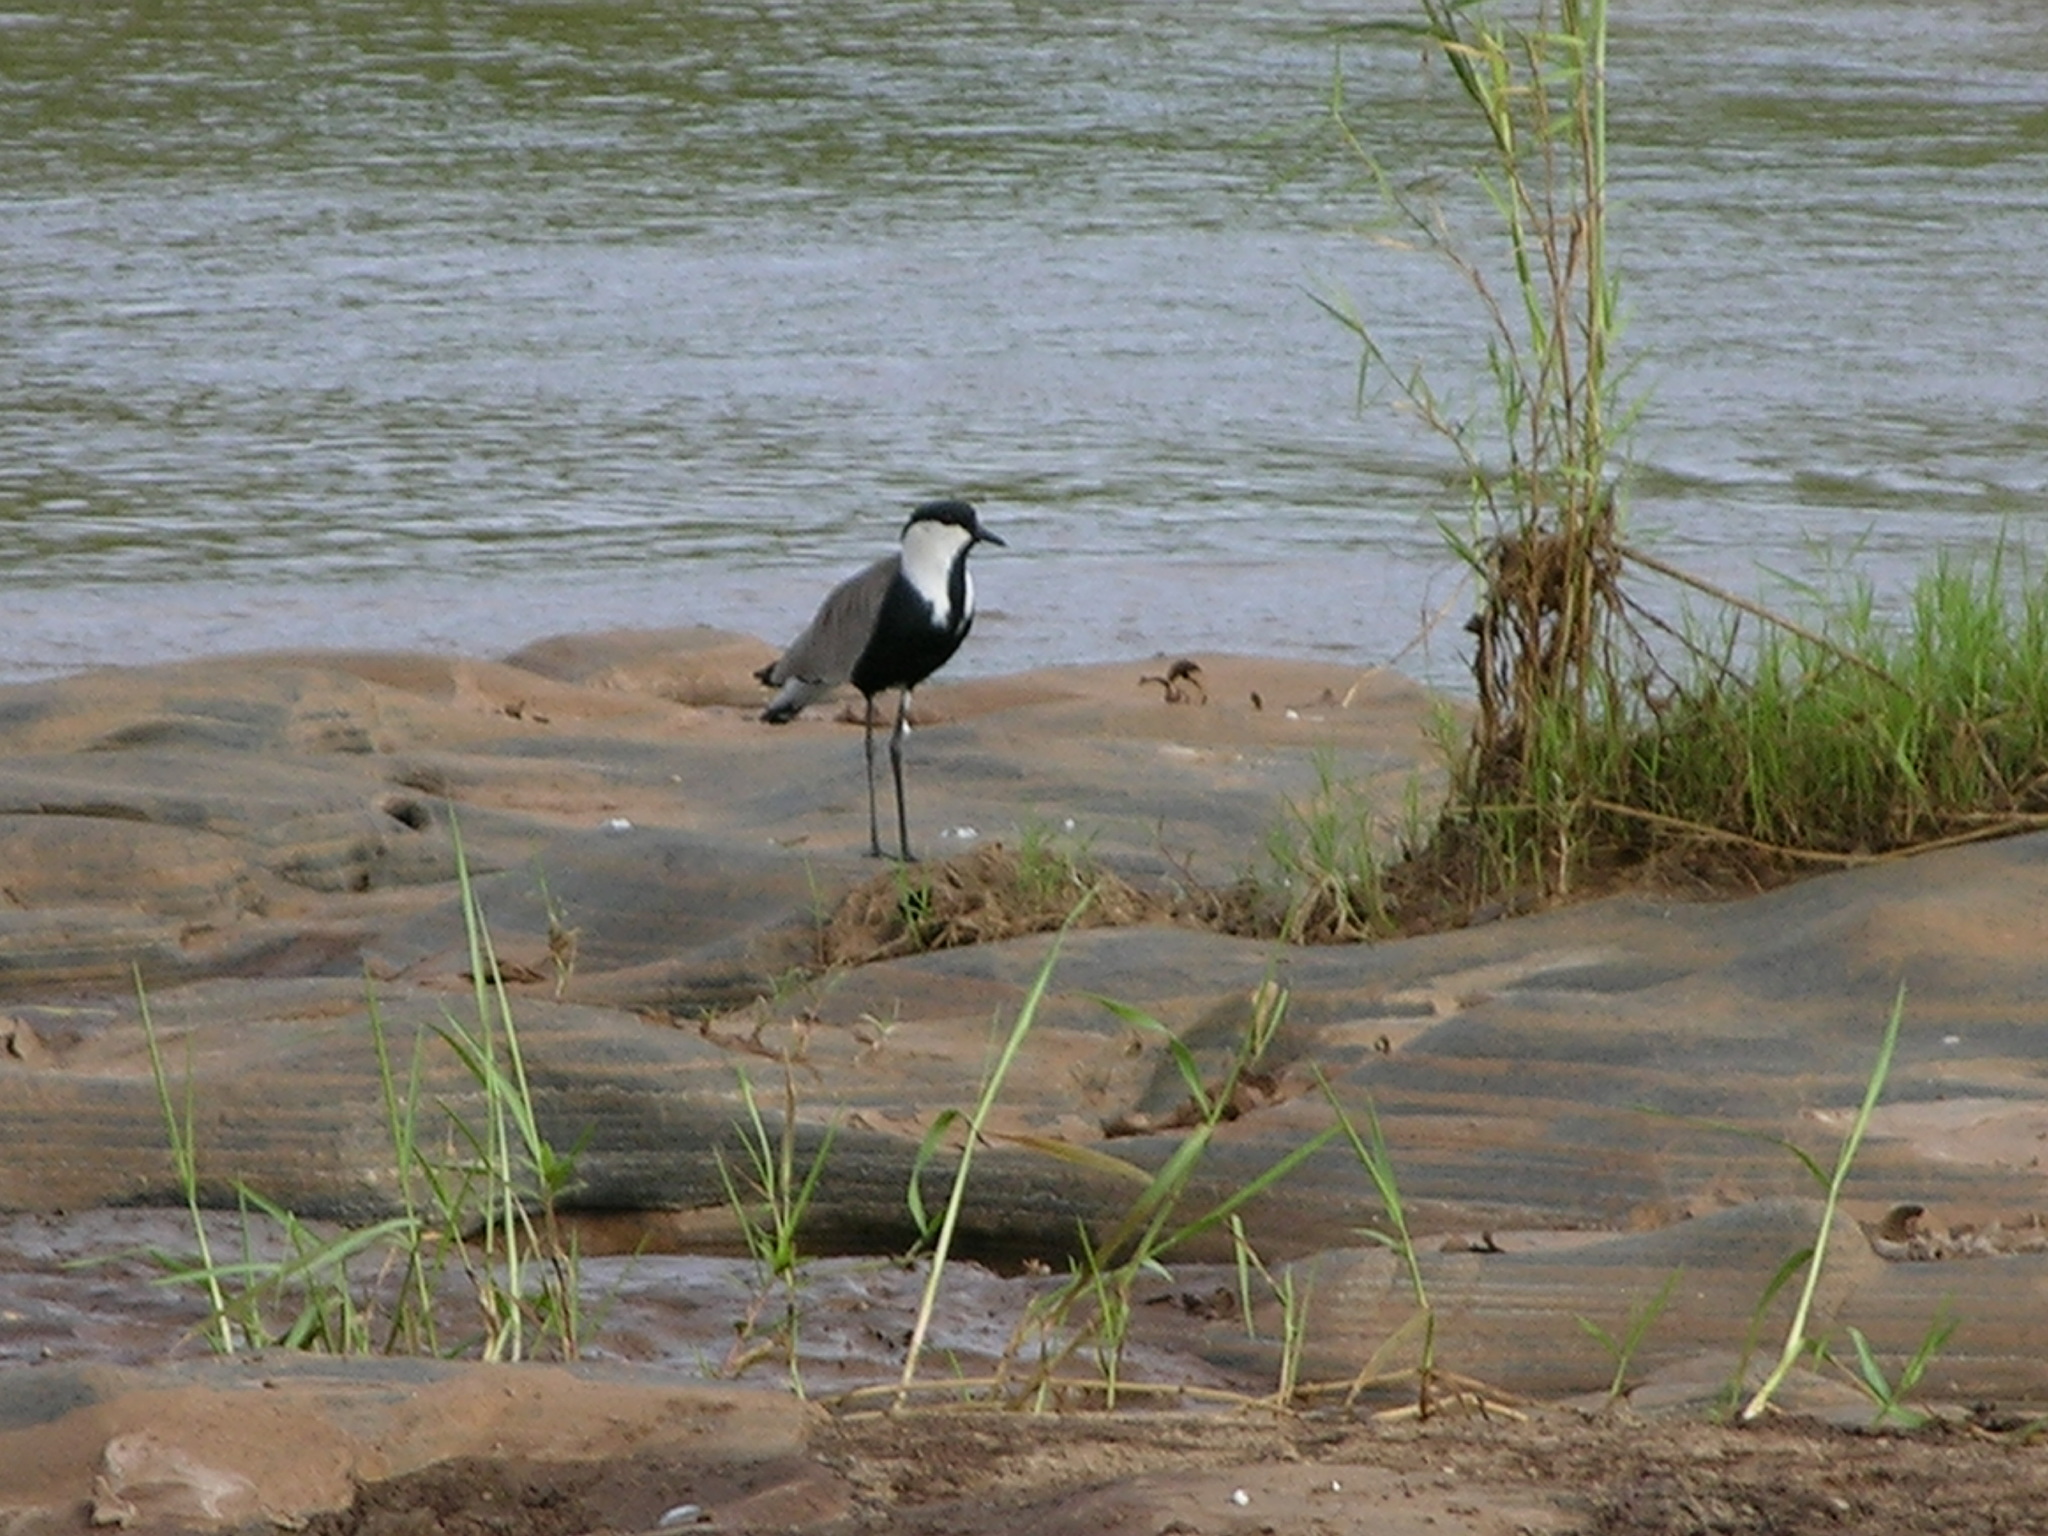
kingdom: Animalia
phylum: Chordata
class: Aves
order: Charadriiformes
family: Charadriidae
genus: Vanellus
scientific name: Vanellus spinosus
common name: Spur-winged lapwing
